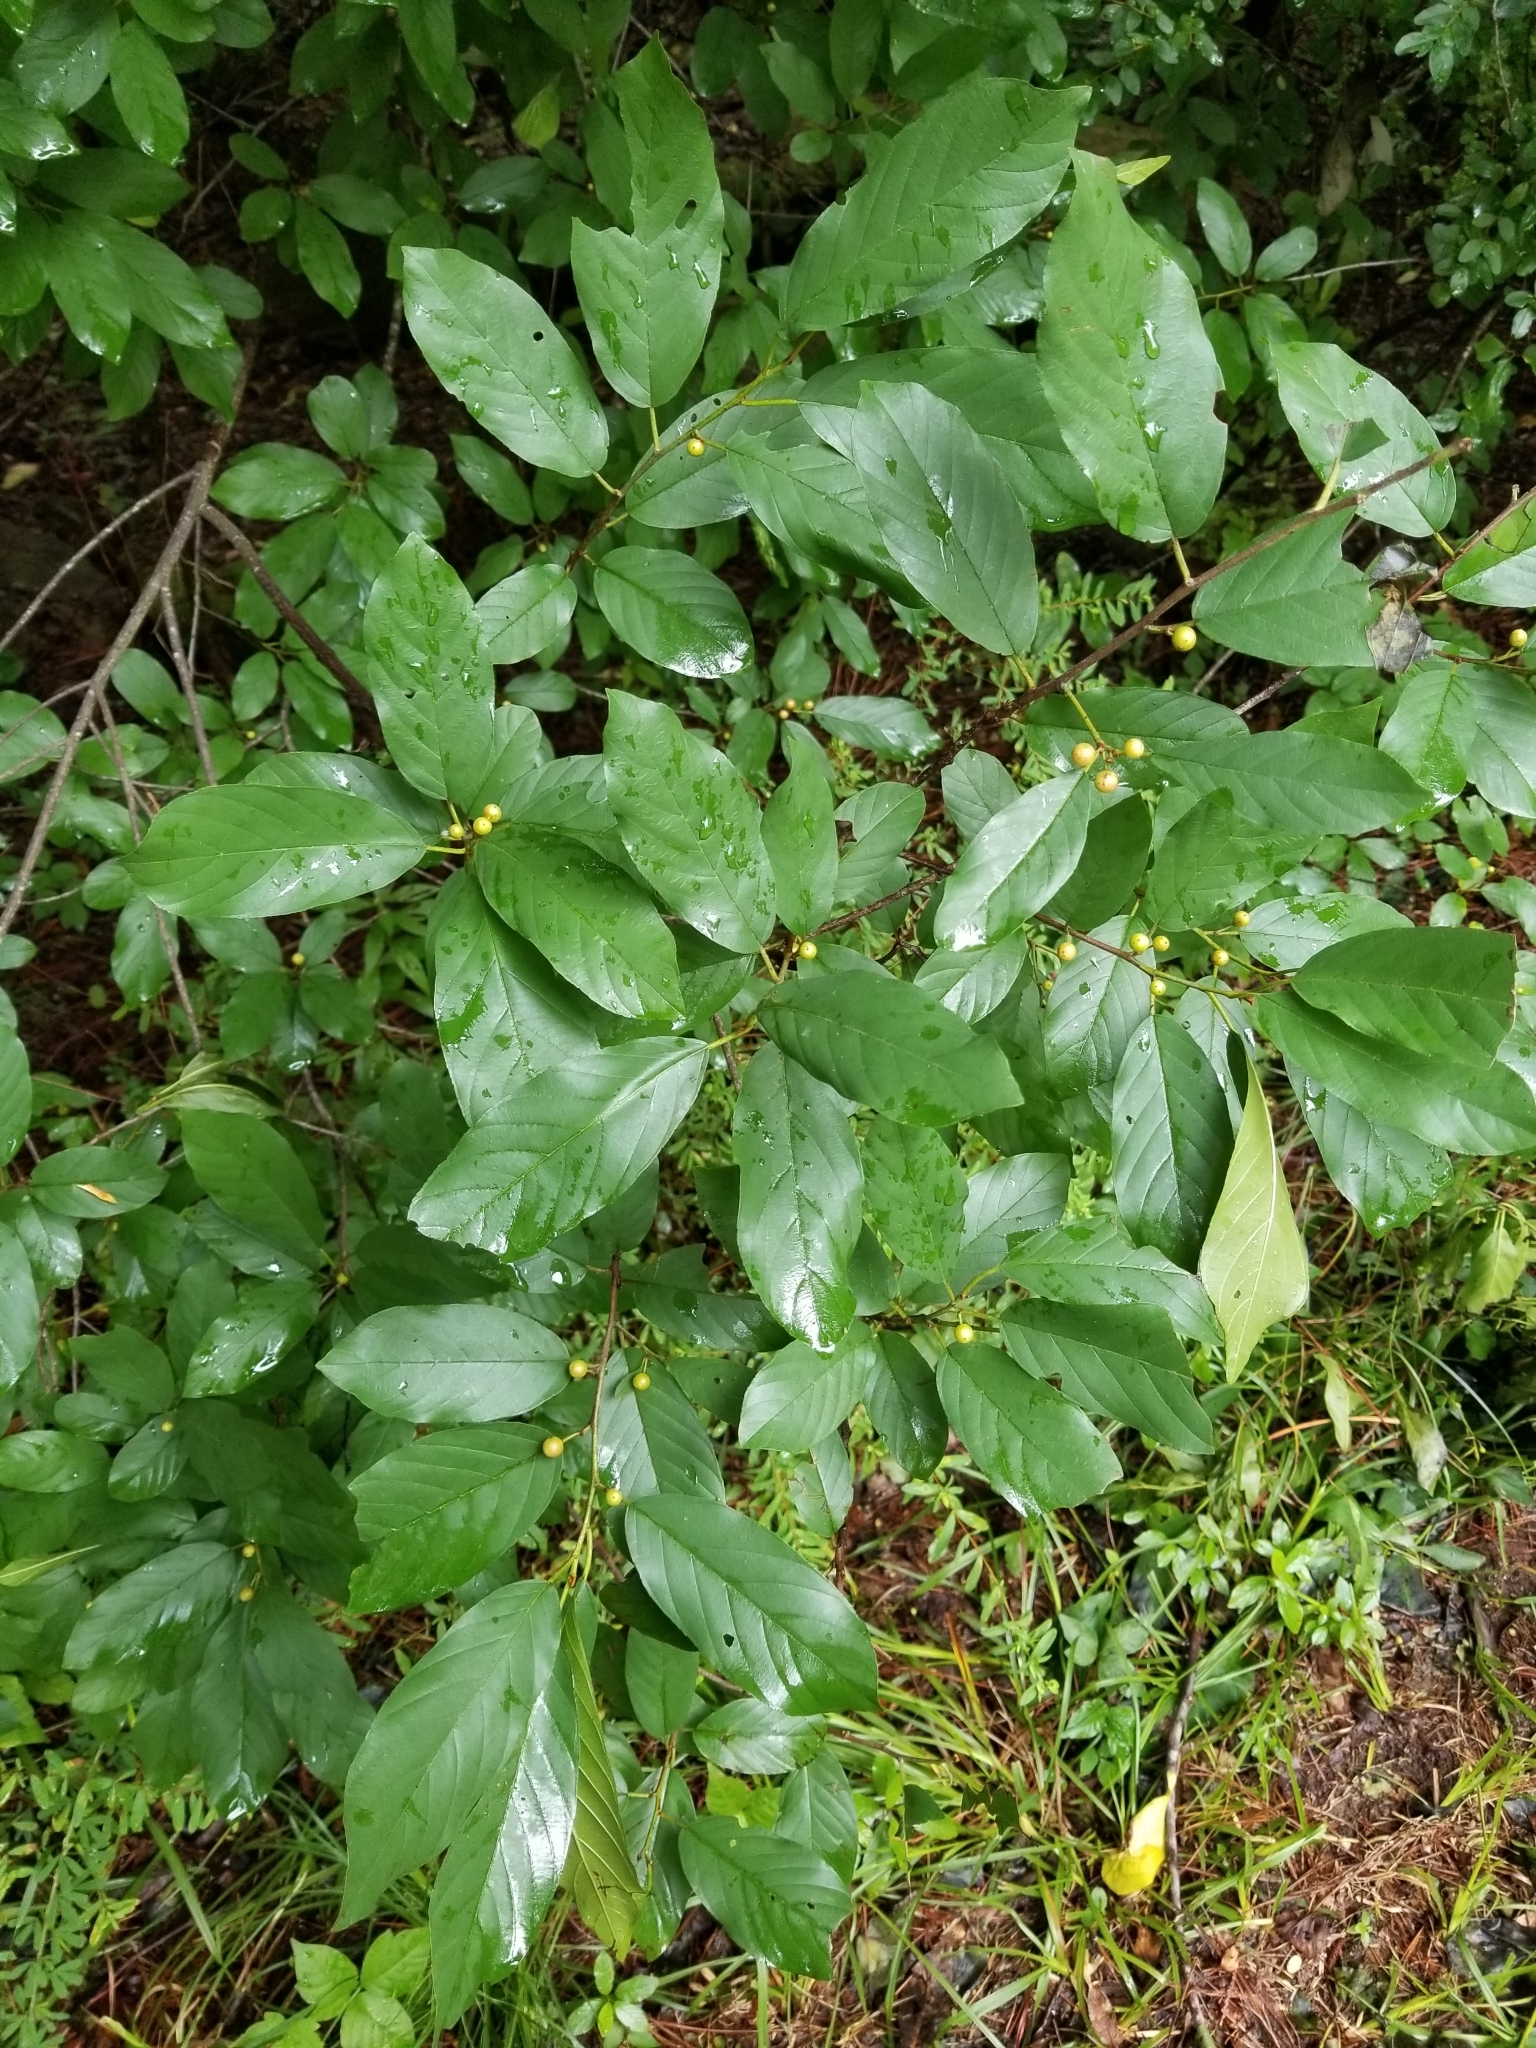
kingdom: Plantae
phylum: Tracheophyta
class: Magnoliopsida
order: Rosales
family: Rhamnaceae
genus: Frangula
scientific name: Frangula caroliniana
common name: Carolina buckthorn
